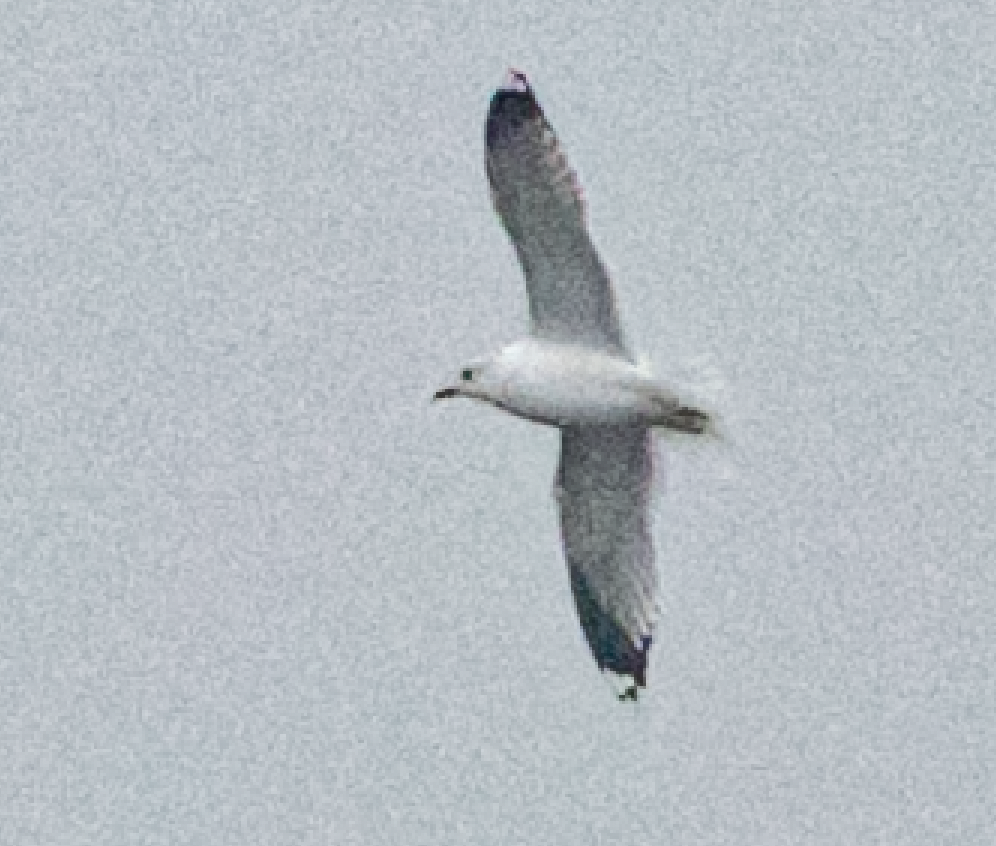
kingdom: Animalia
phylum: Chordata
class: Aves
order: Charadriiformes
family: Laridae
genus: Larus
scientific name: Larus canus
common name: Mew gull
